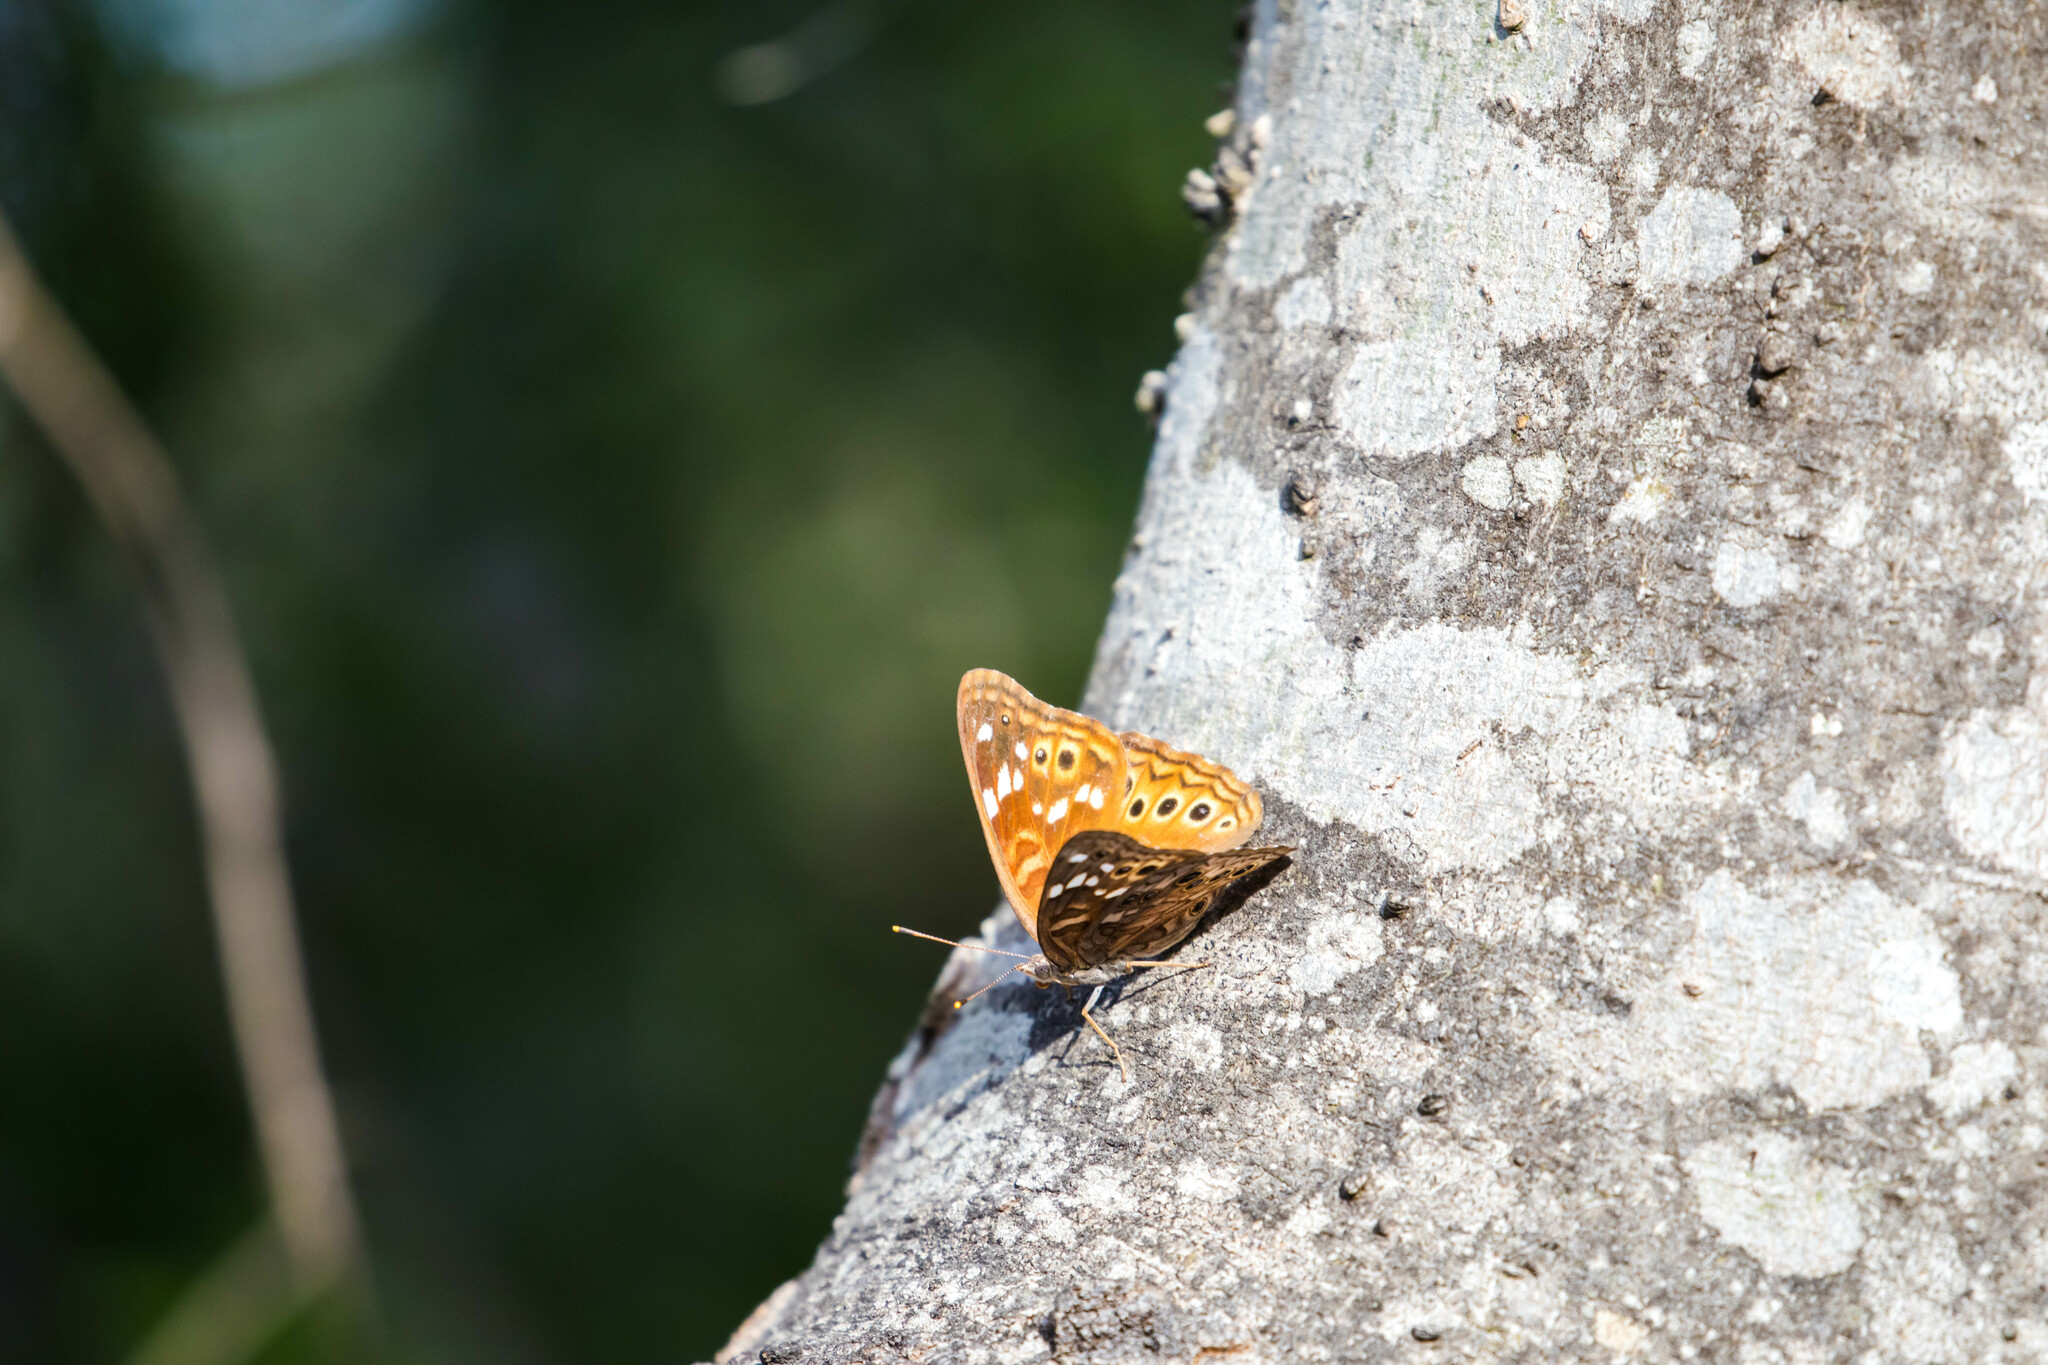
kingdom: Animalia
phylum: Arthropoda
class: Insecta
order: Lepidoptera
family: Nymphalidae
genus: Asterocampa
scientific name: Asterocampa leilia
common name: Empress leilia
